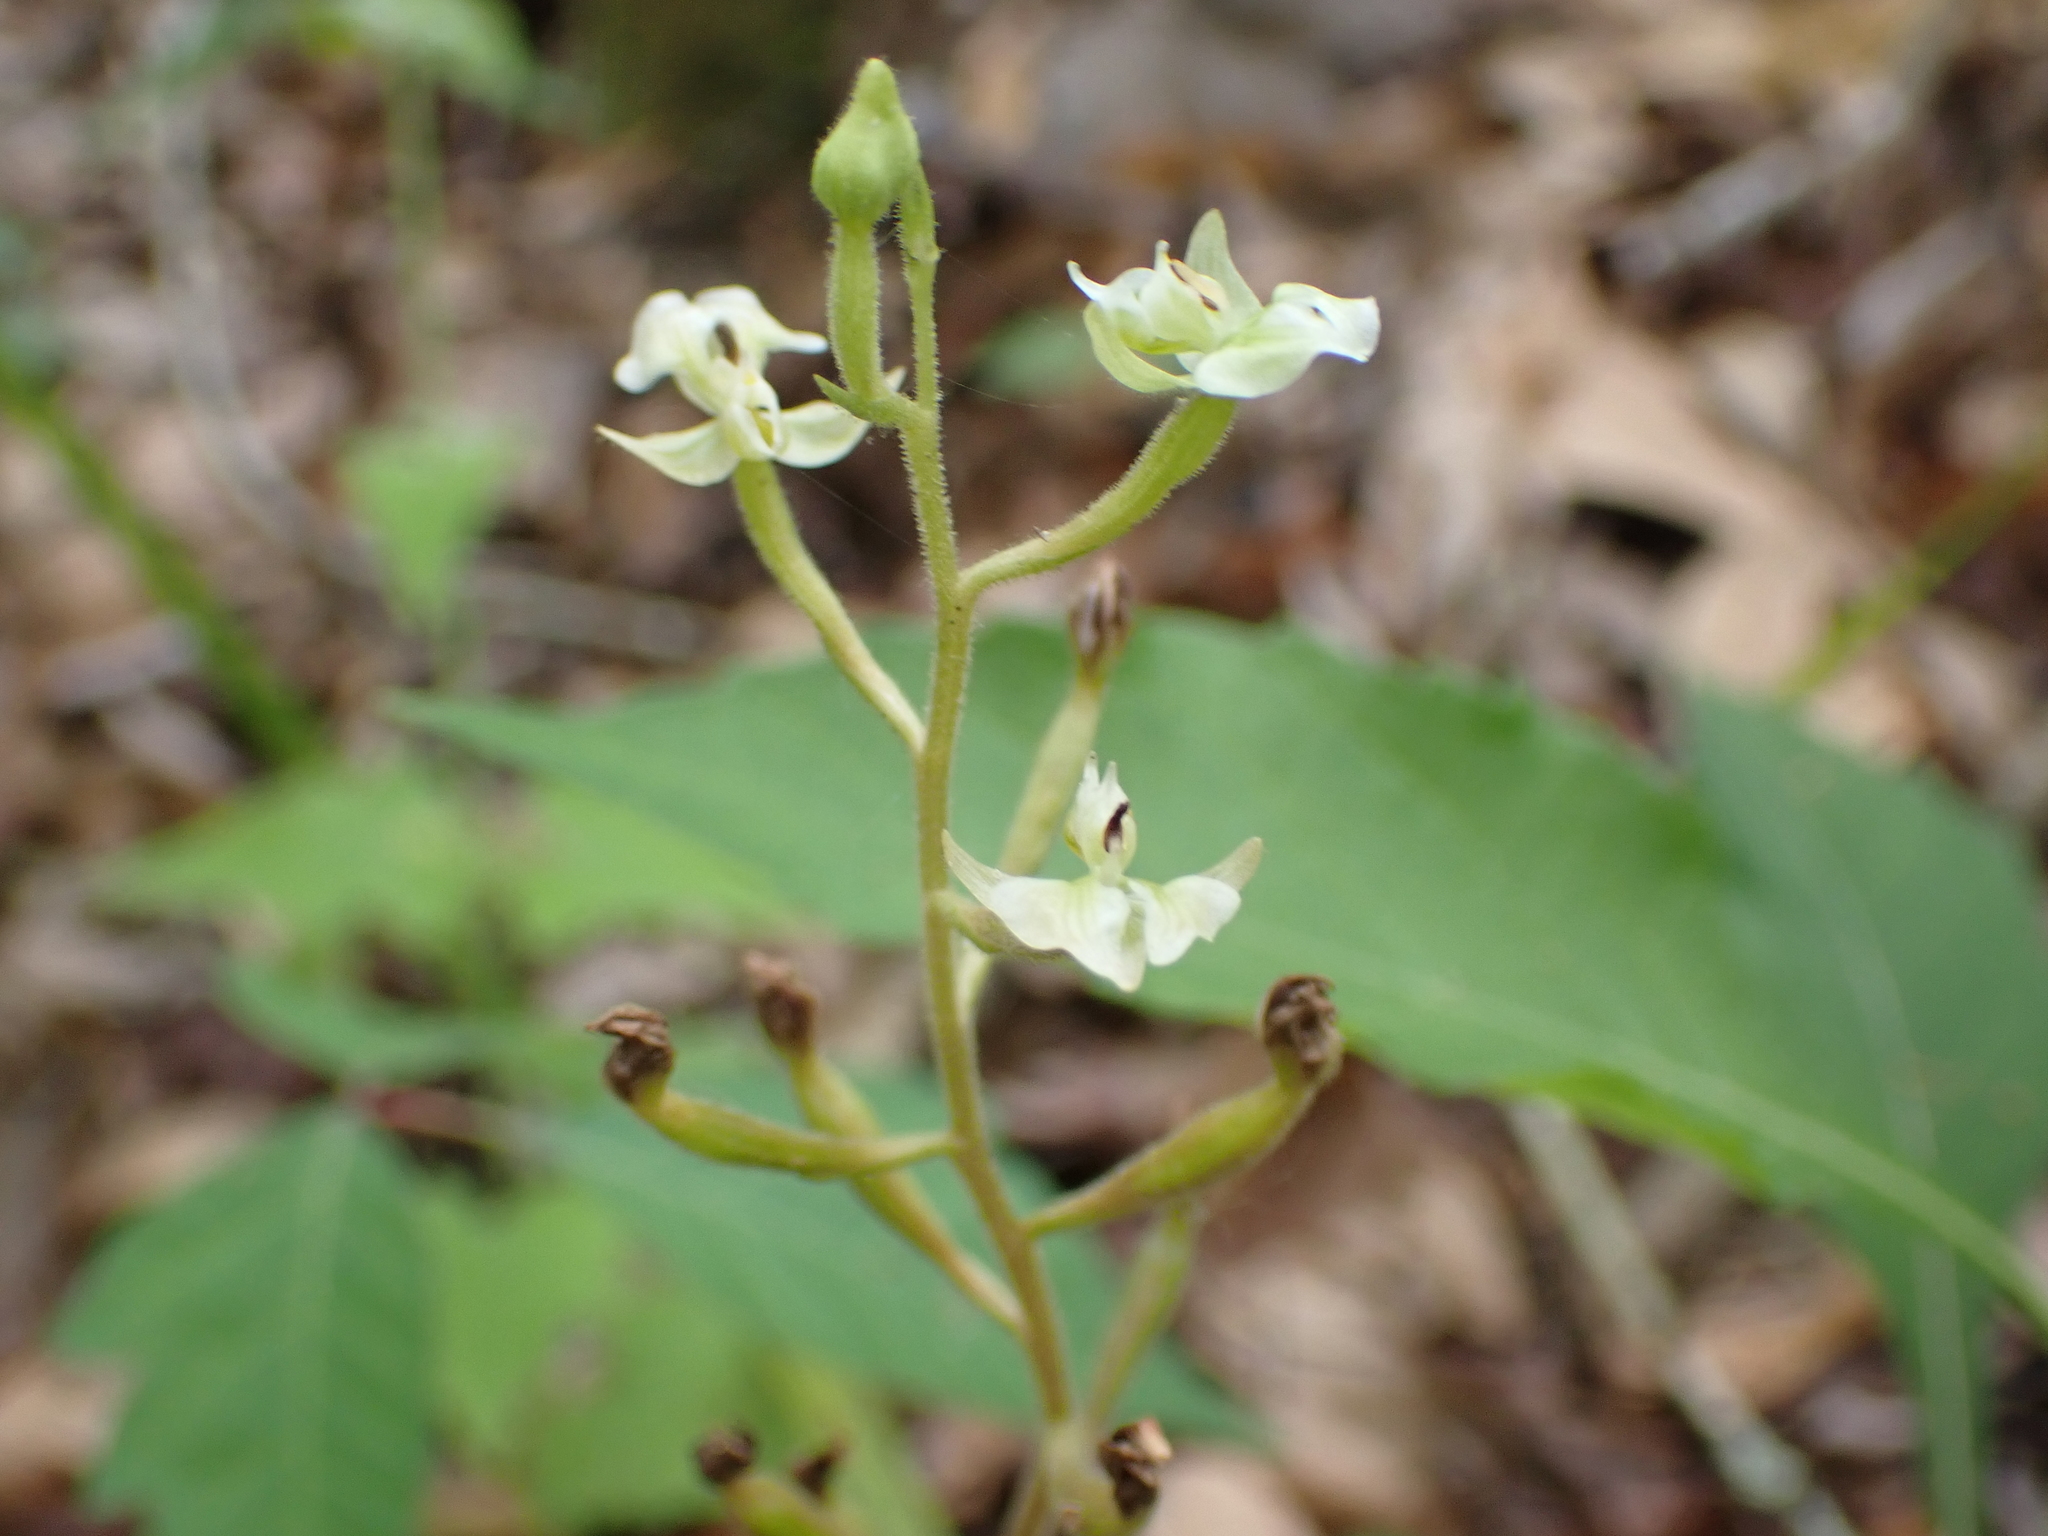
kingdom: Plantae
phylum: Tracheophyta
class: Liliopsida
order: Asparagales
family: Orchidaceae
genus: Ponthieva
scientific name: Ponthieva racemosa
